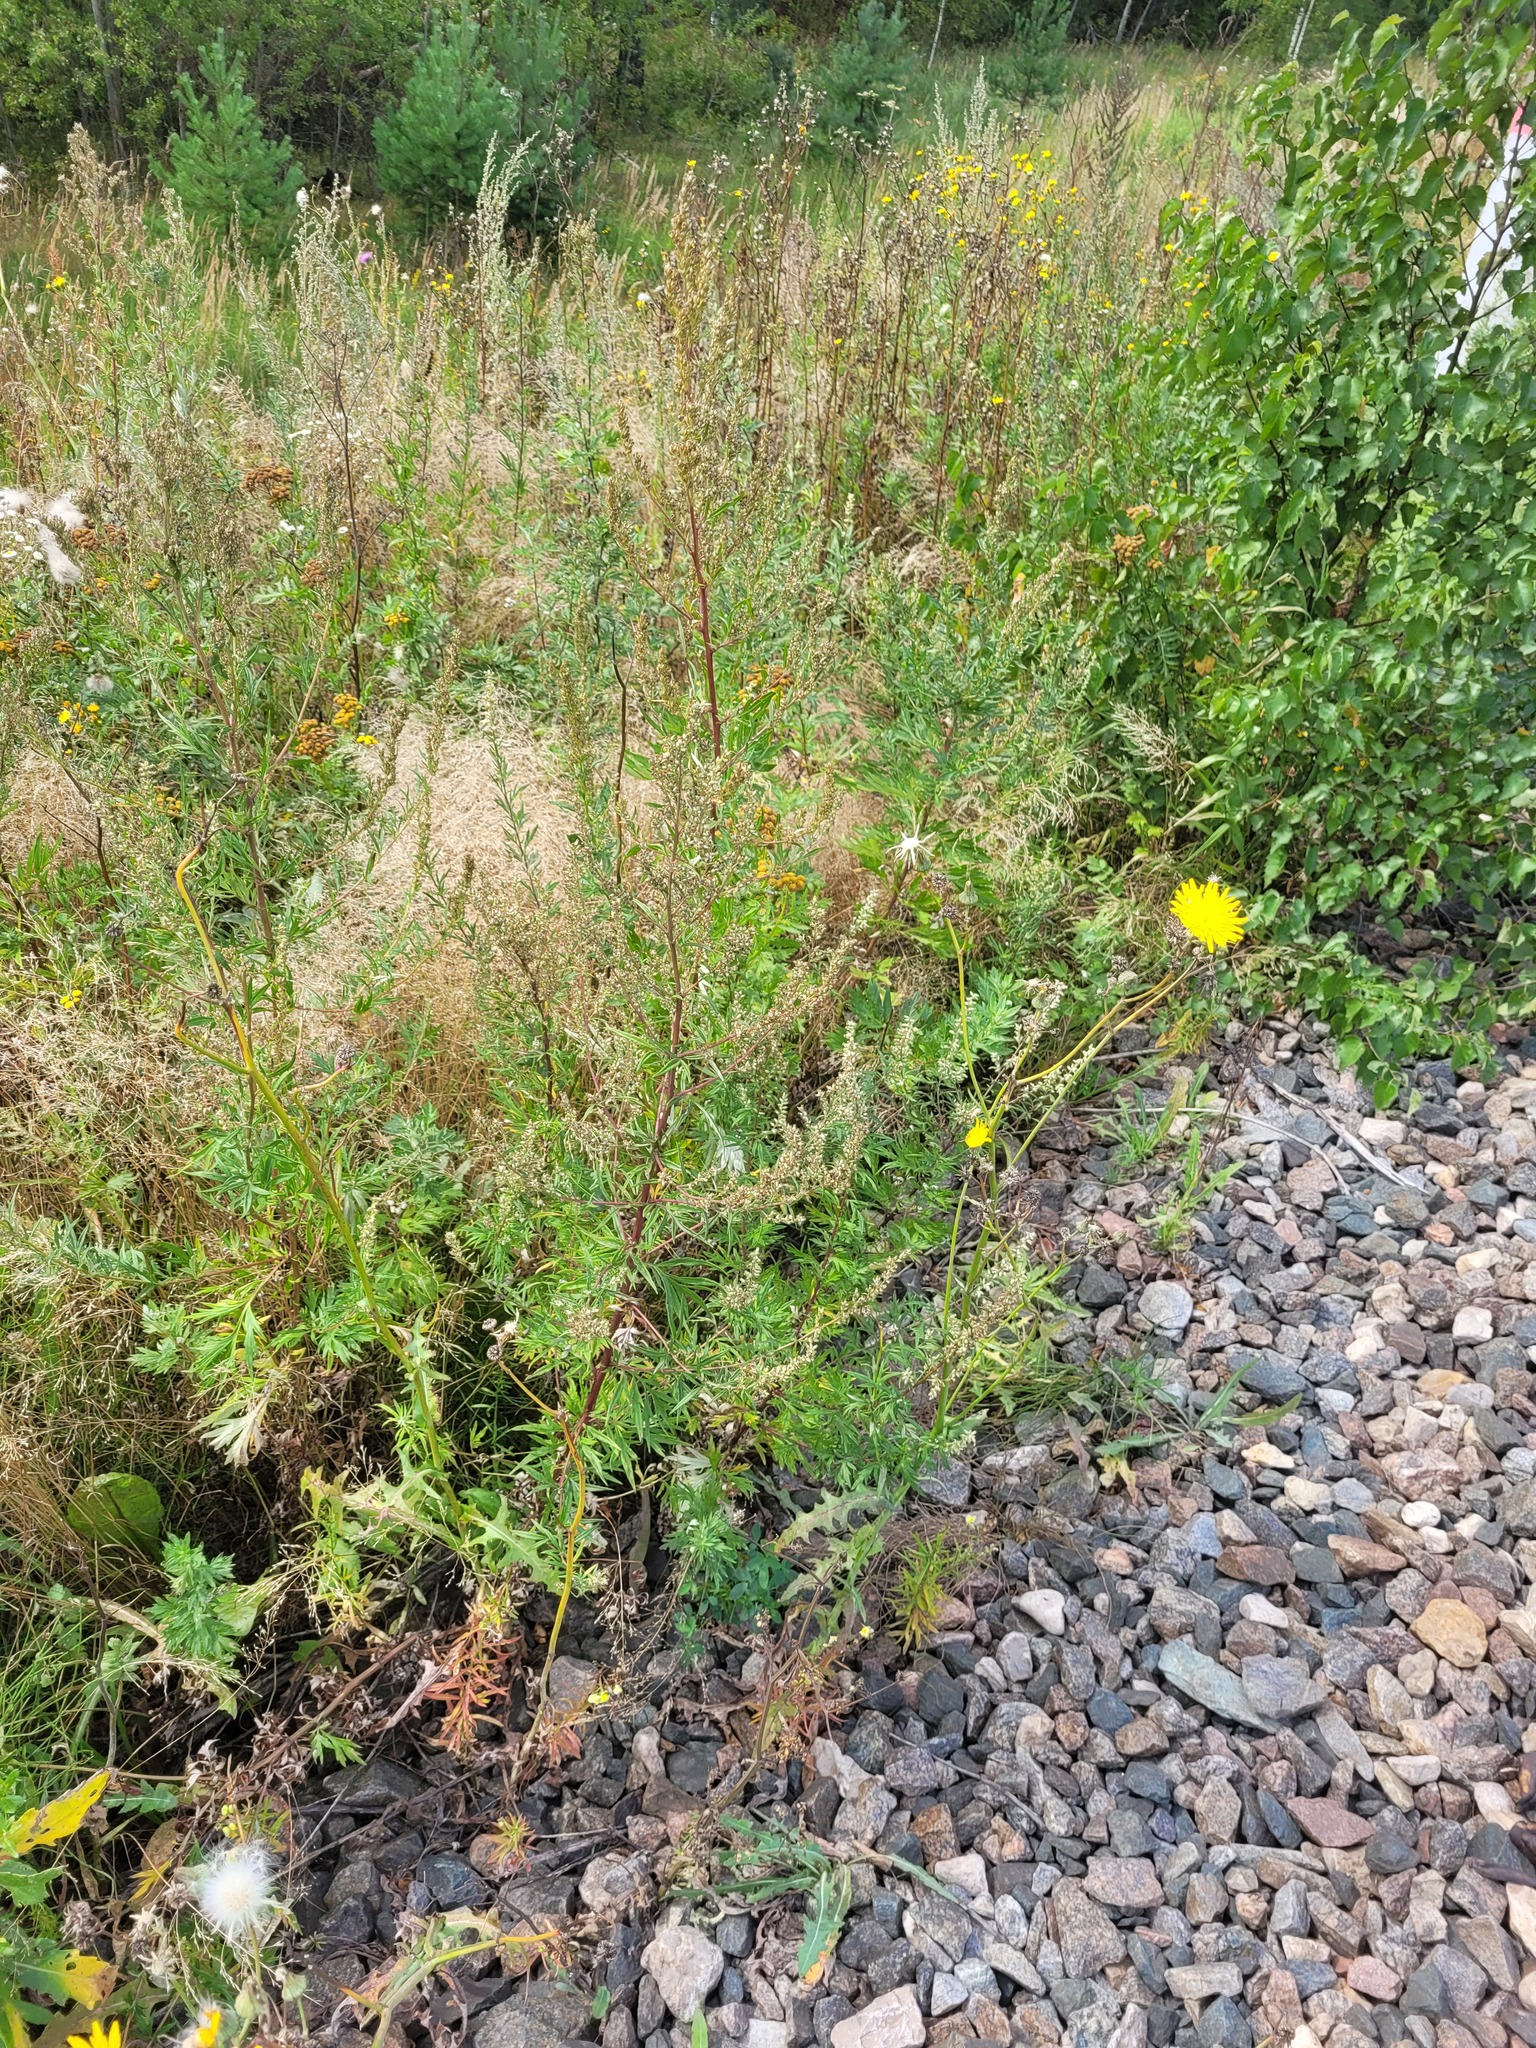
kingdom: Plantae
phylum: Tracheophyta
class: Magnoliopsida
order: Asterales
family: Asteraceae
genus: Artemisia
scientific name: Artemisia vulgaris
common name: Mugwort
